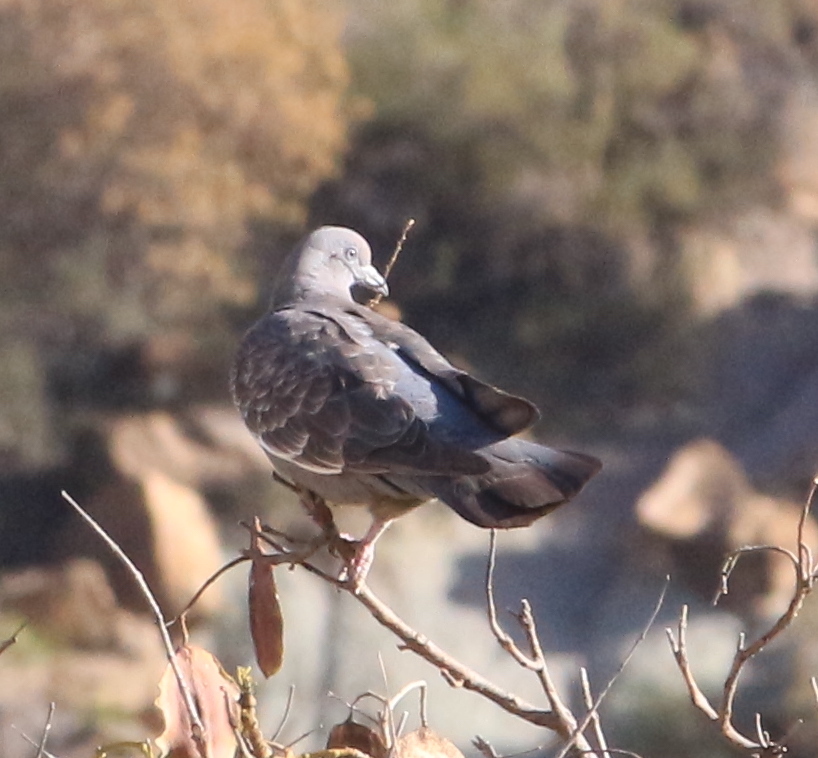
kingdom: Animalia
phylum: Chordata
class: Aves
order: Columbiformes
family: Columbidae
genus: Patagioenas
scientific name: Patagioenas maculosa
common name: Spot-winged pigeon
